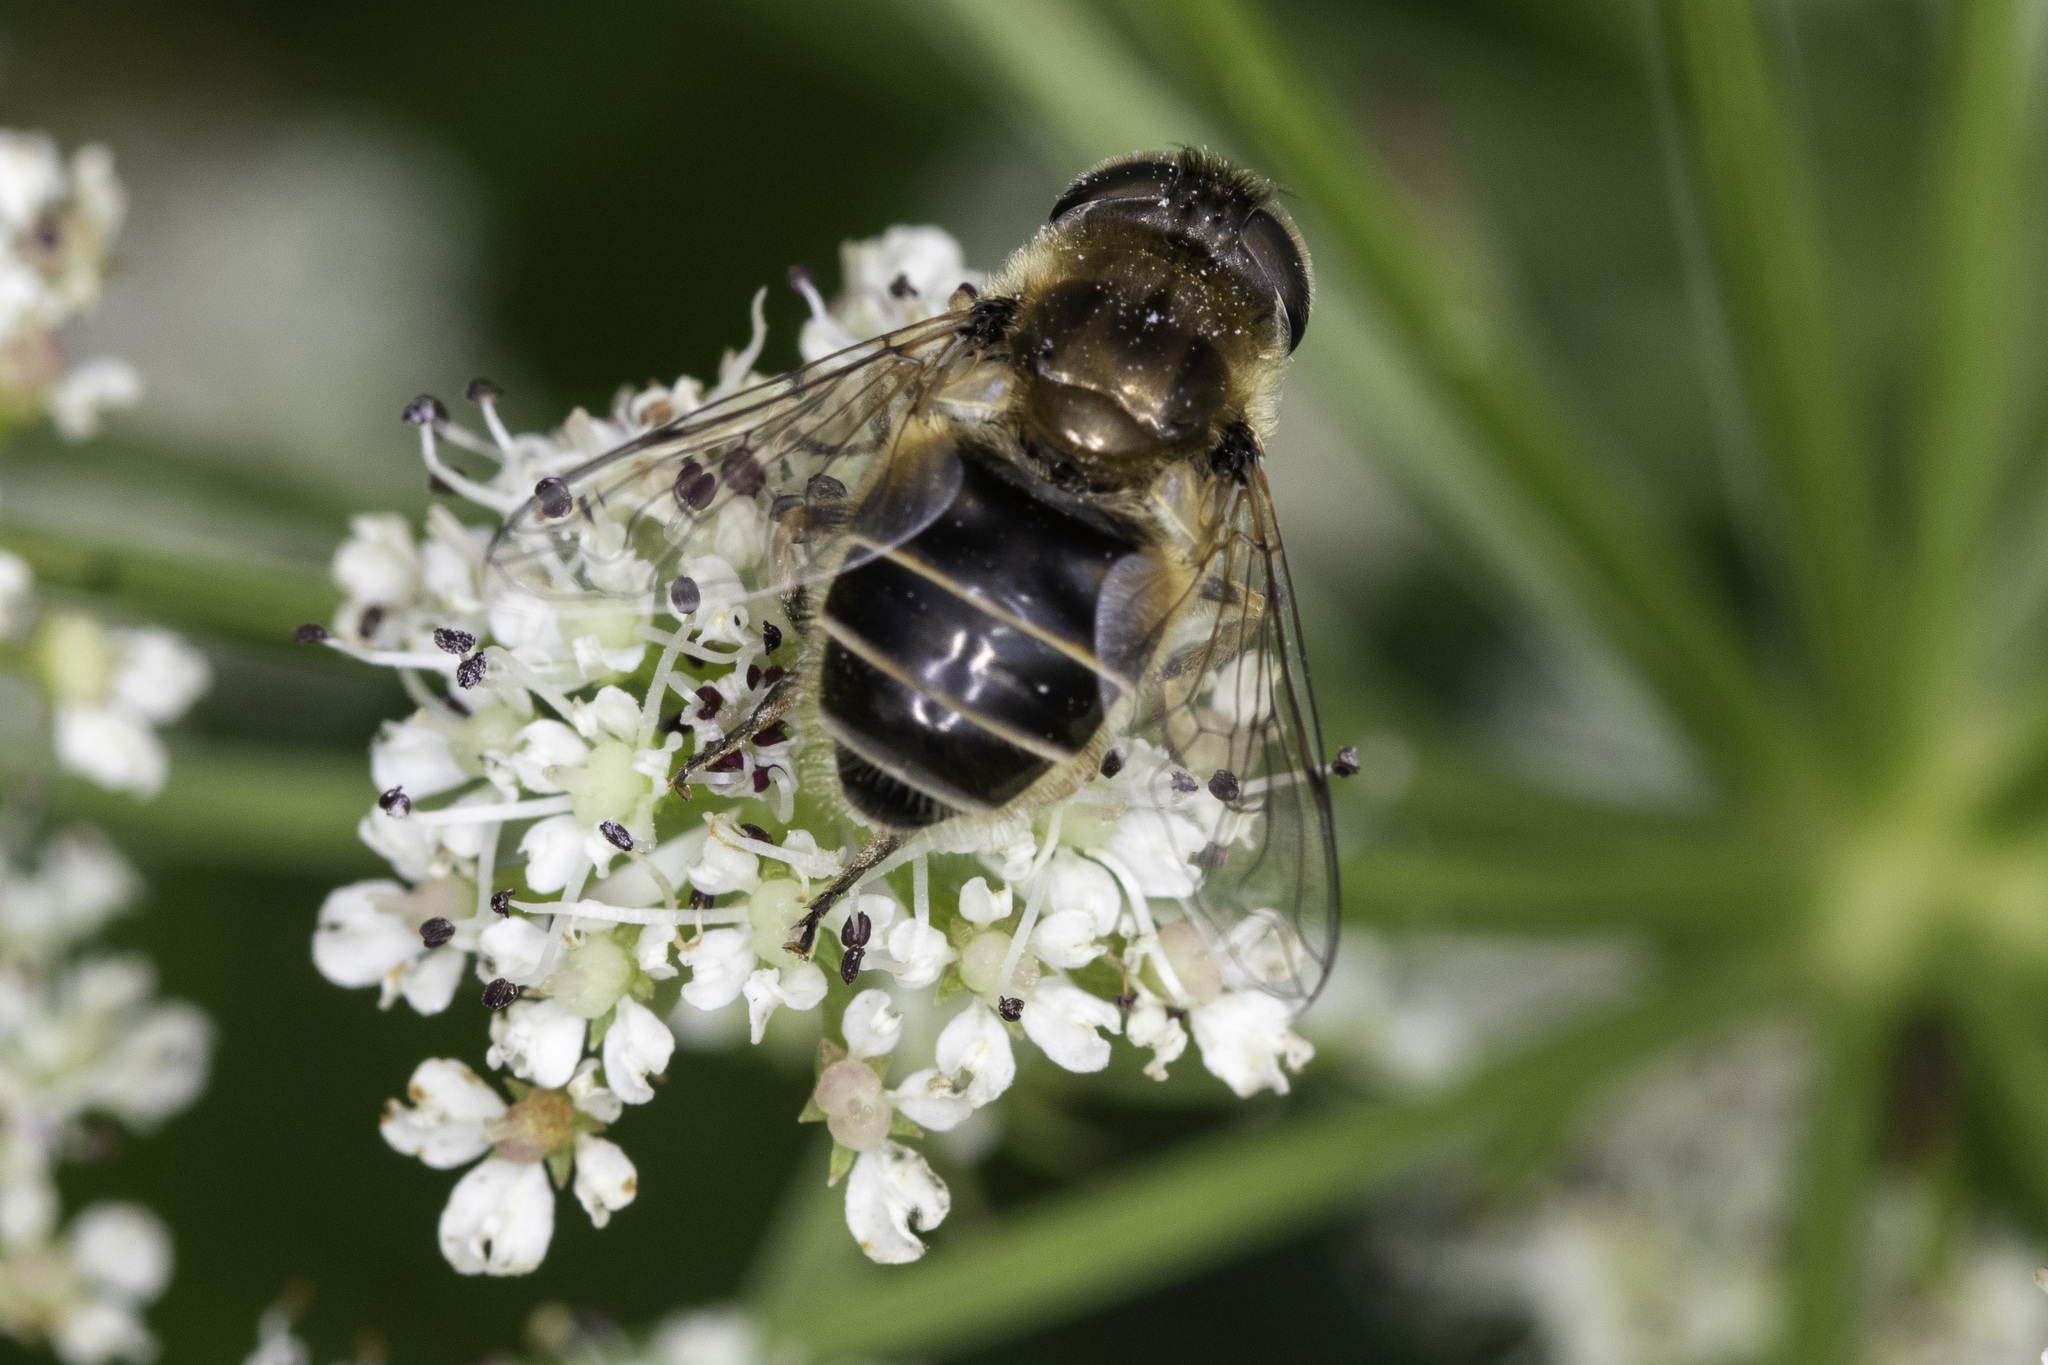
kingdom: Animalia
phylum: Arthropoda
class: Insecta
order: Diptera
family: Syrphidae
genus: Eristalis
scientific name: Eristalis arbustorum
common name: Hover fly
